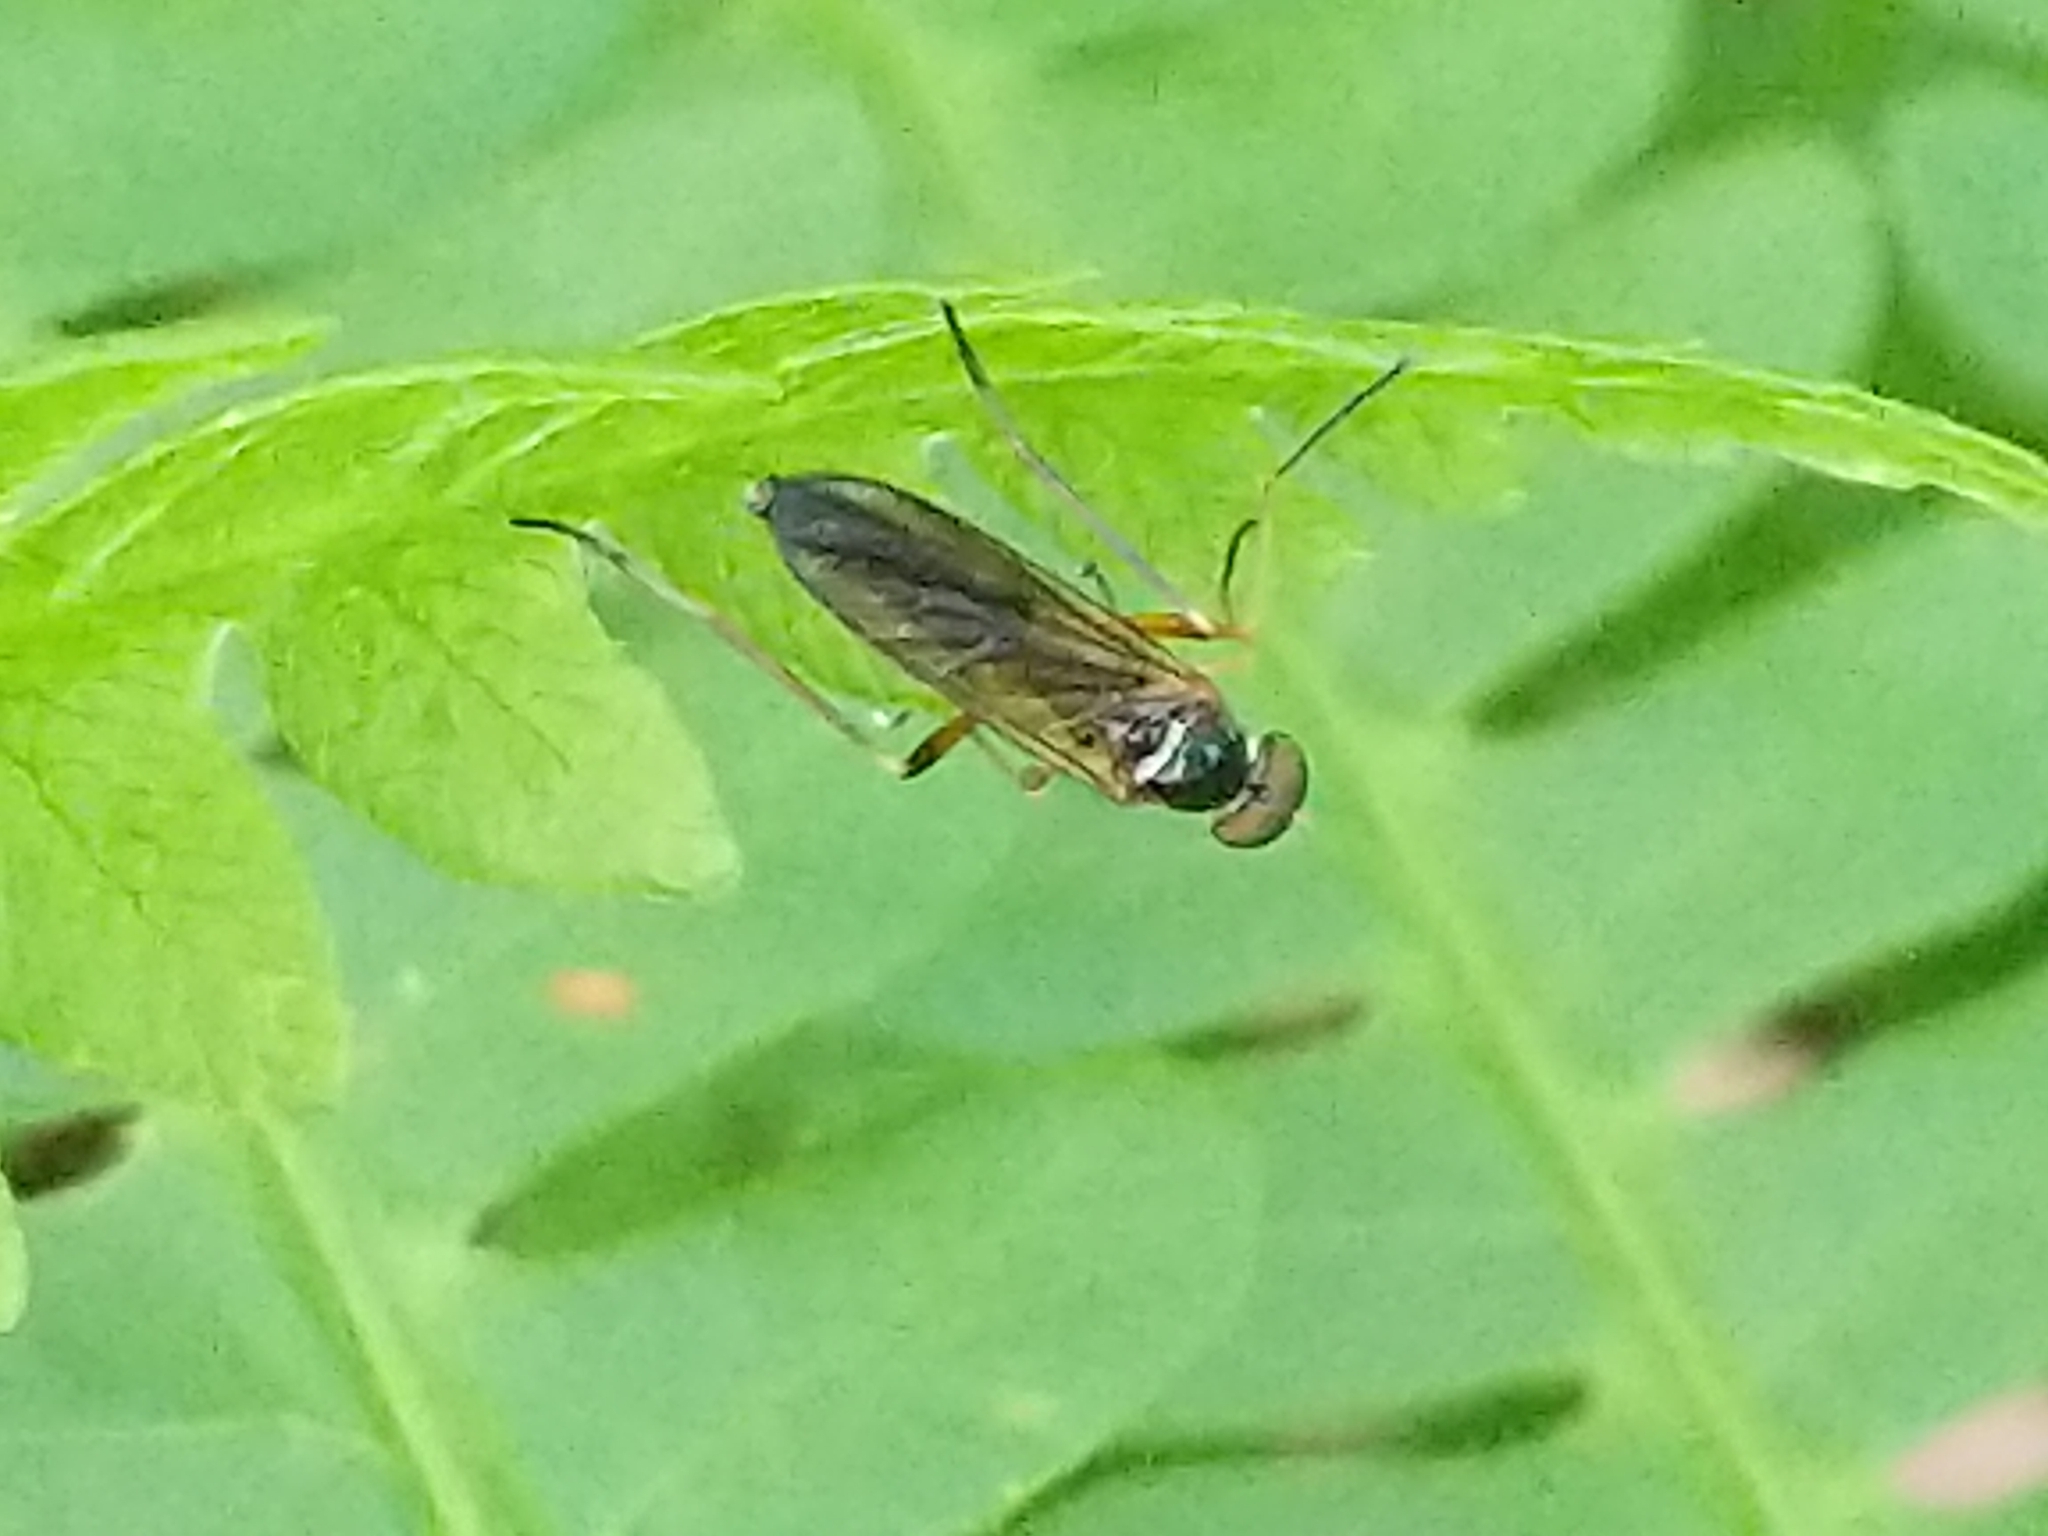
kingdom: Animalia
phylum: Arthropoda
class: Insecta
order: Diptera
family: Xylophagidae
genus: Dialysis
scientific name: Dialysis elongata
